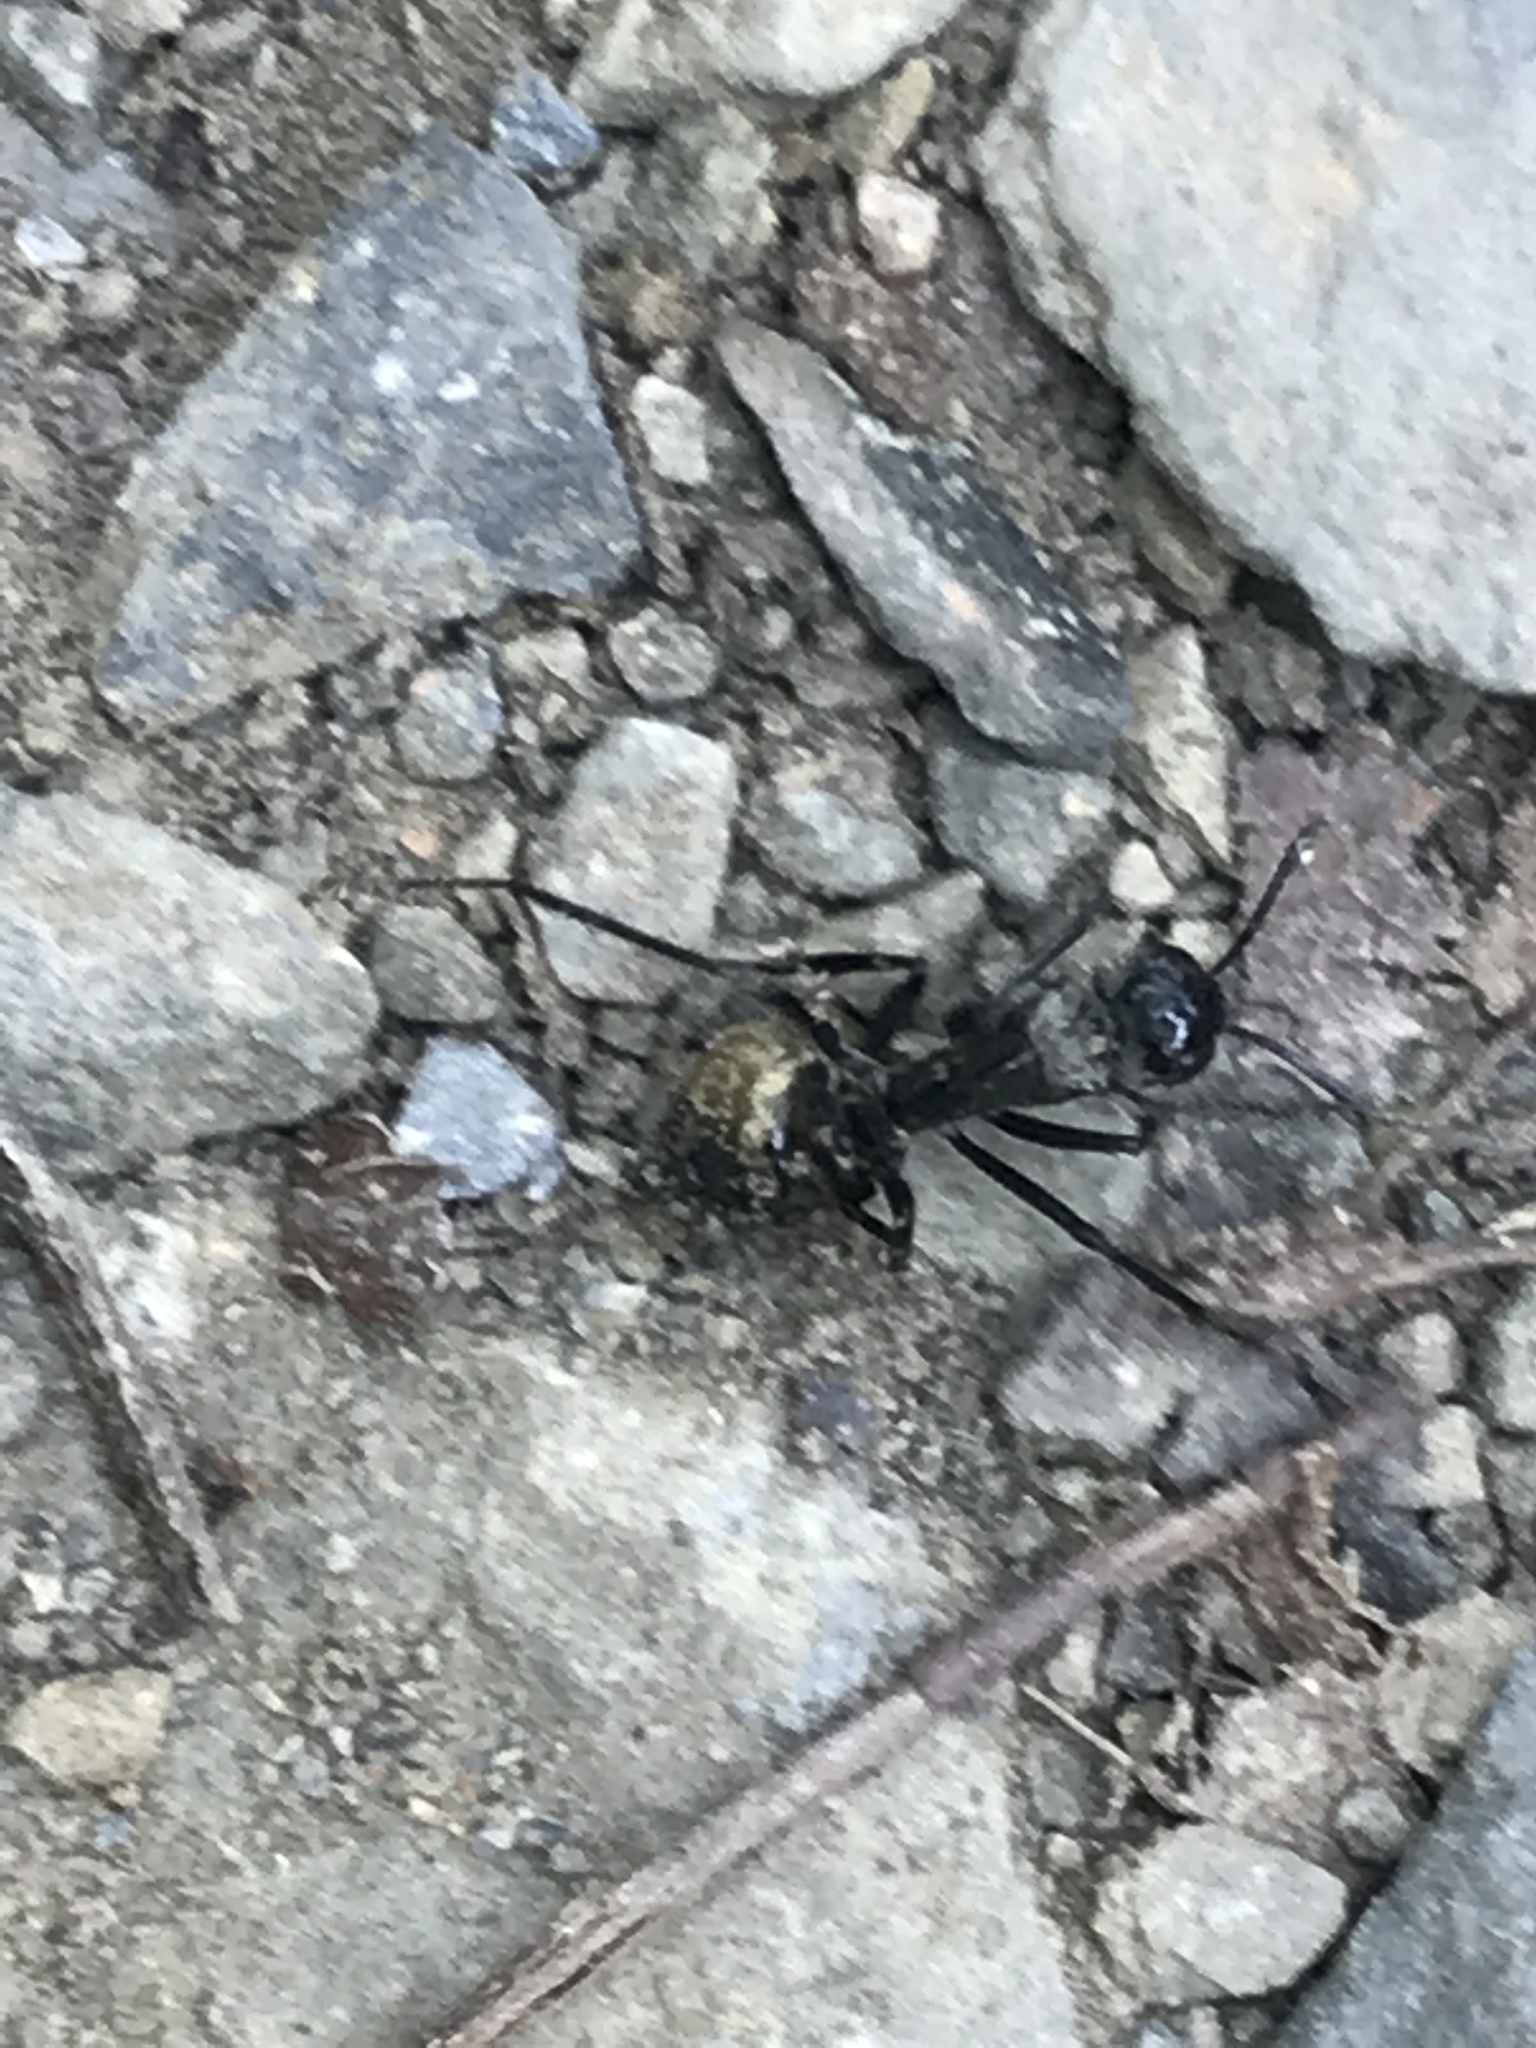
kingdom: Animalia
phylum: Arthropoda
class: Insecta
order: Hymenoptera
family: Formicidae
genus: Camponotus
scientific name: Camponotus sericeiventris
